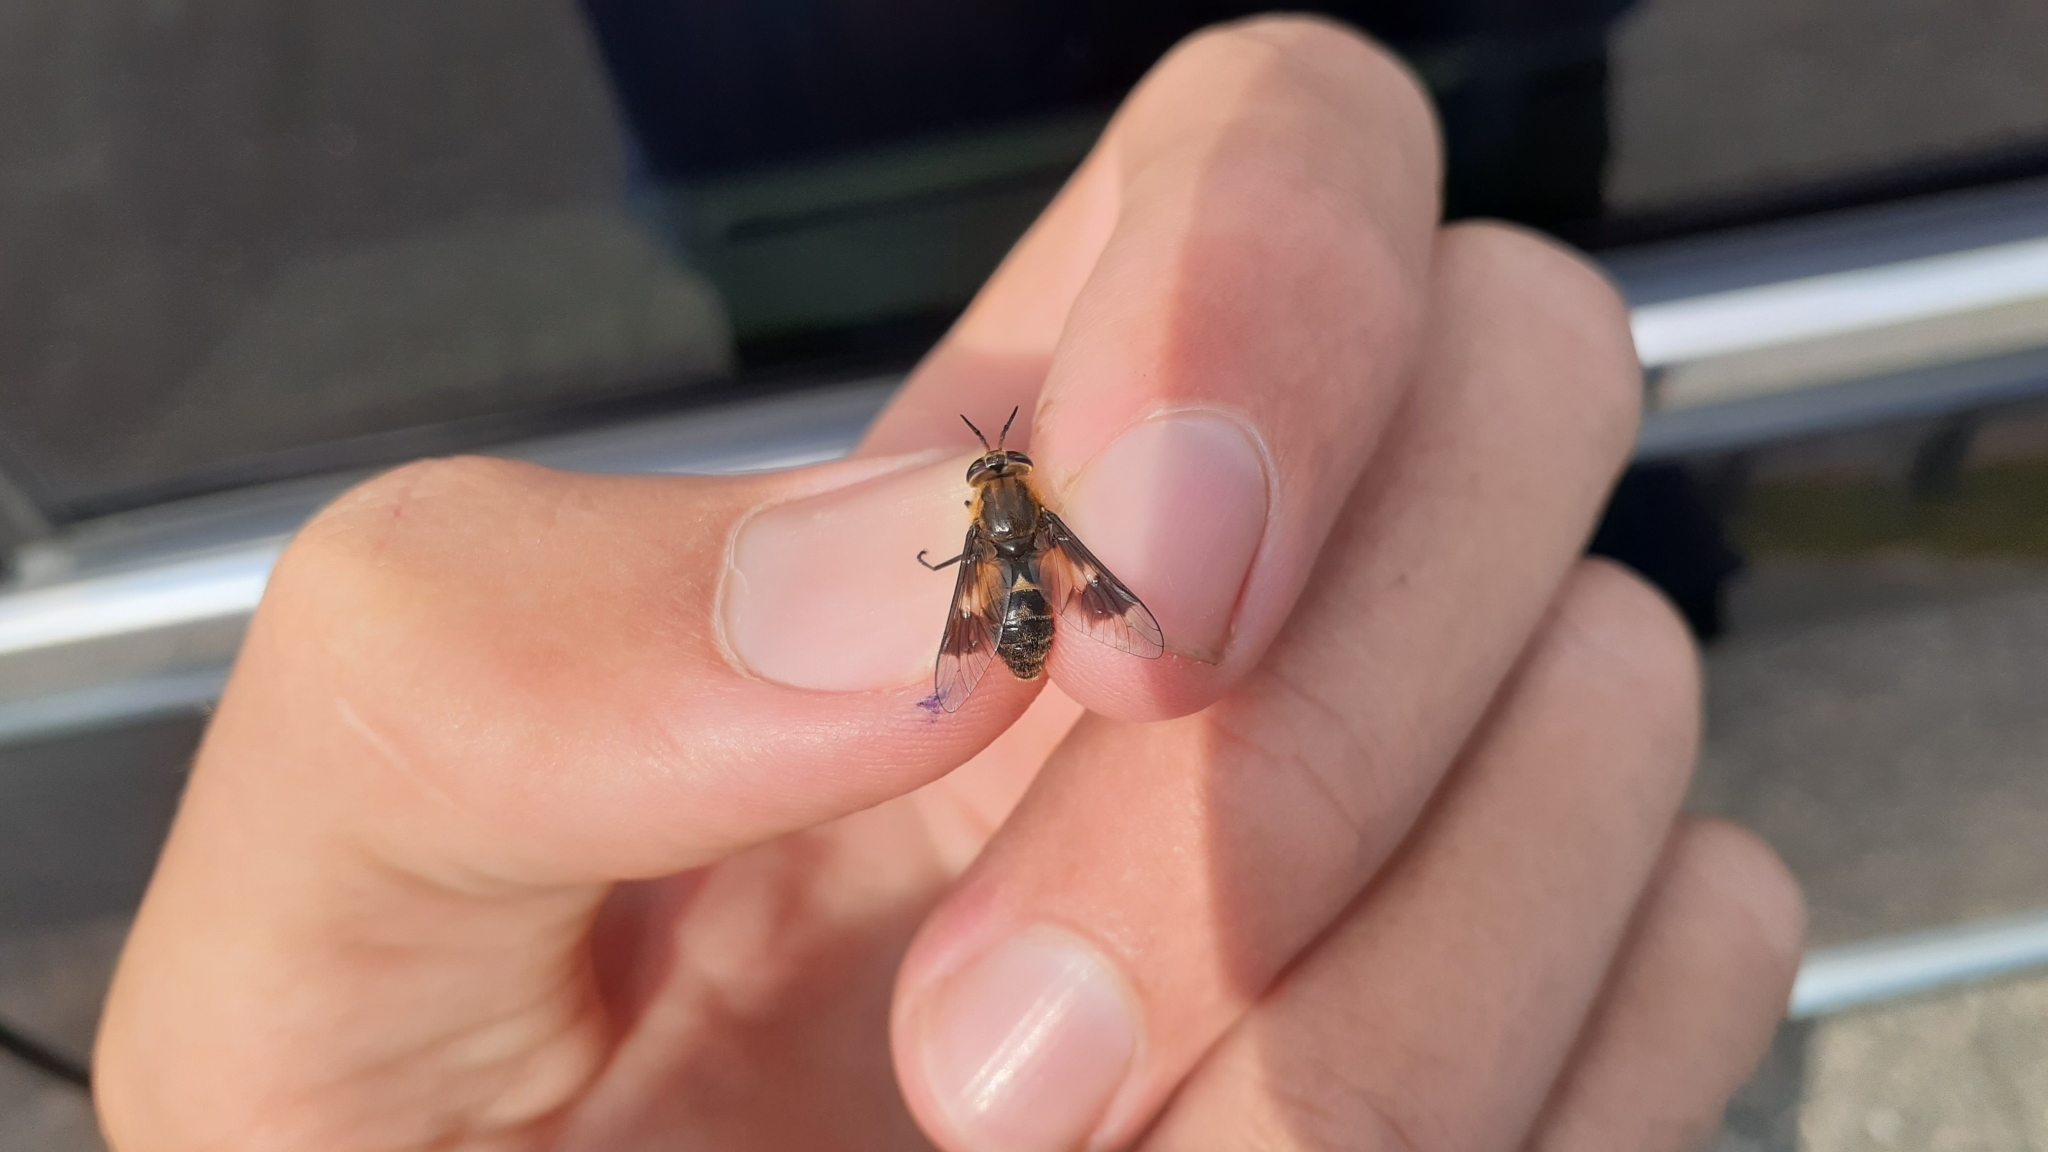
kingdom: Animalia
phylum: Arthropoda
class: Insecta
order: Diptera
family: Tabanidae
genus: Chrysops
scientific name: Chrysops excitans
